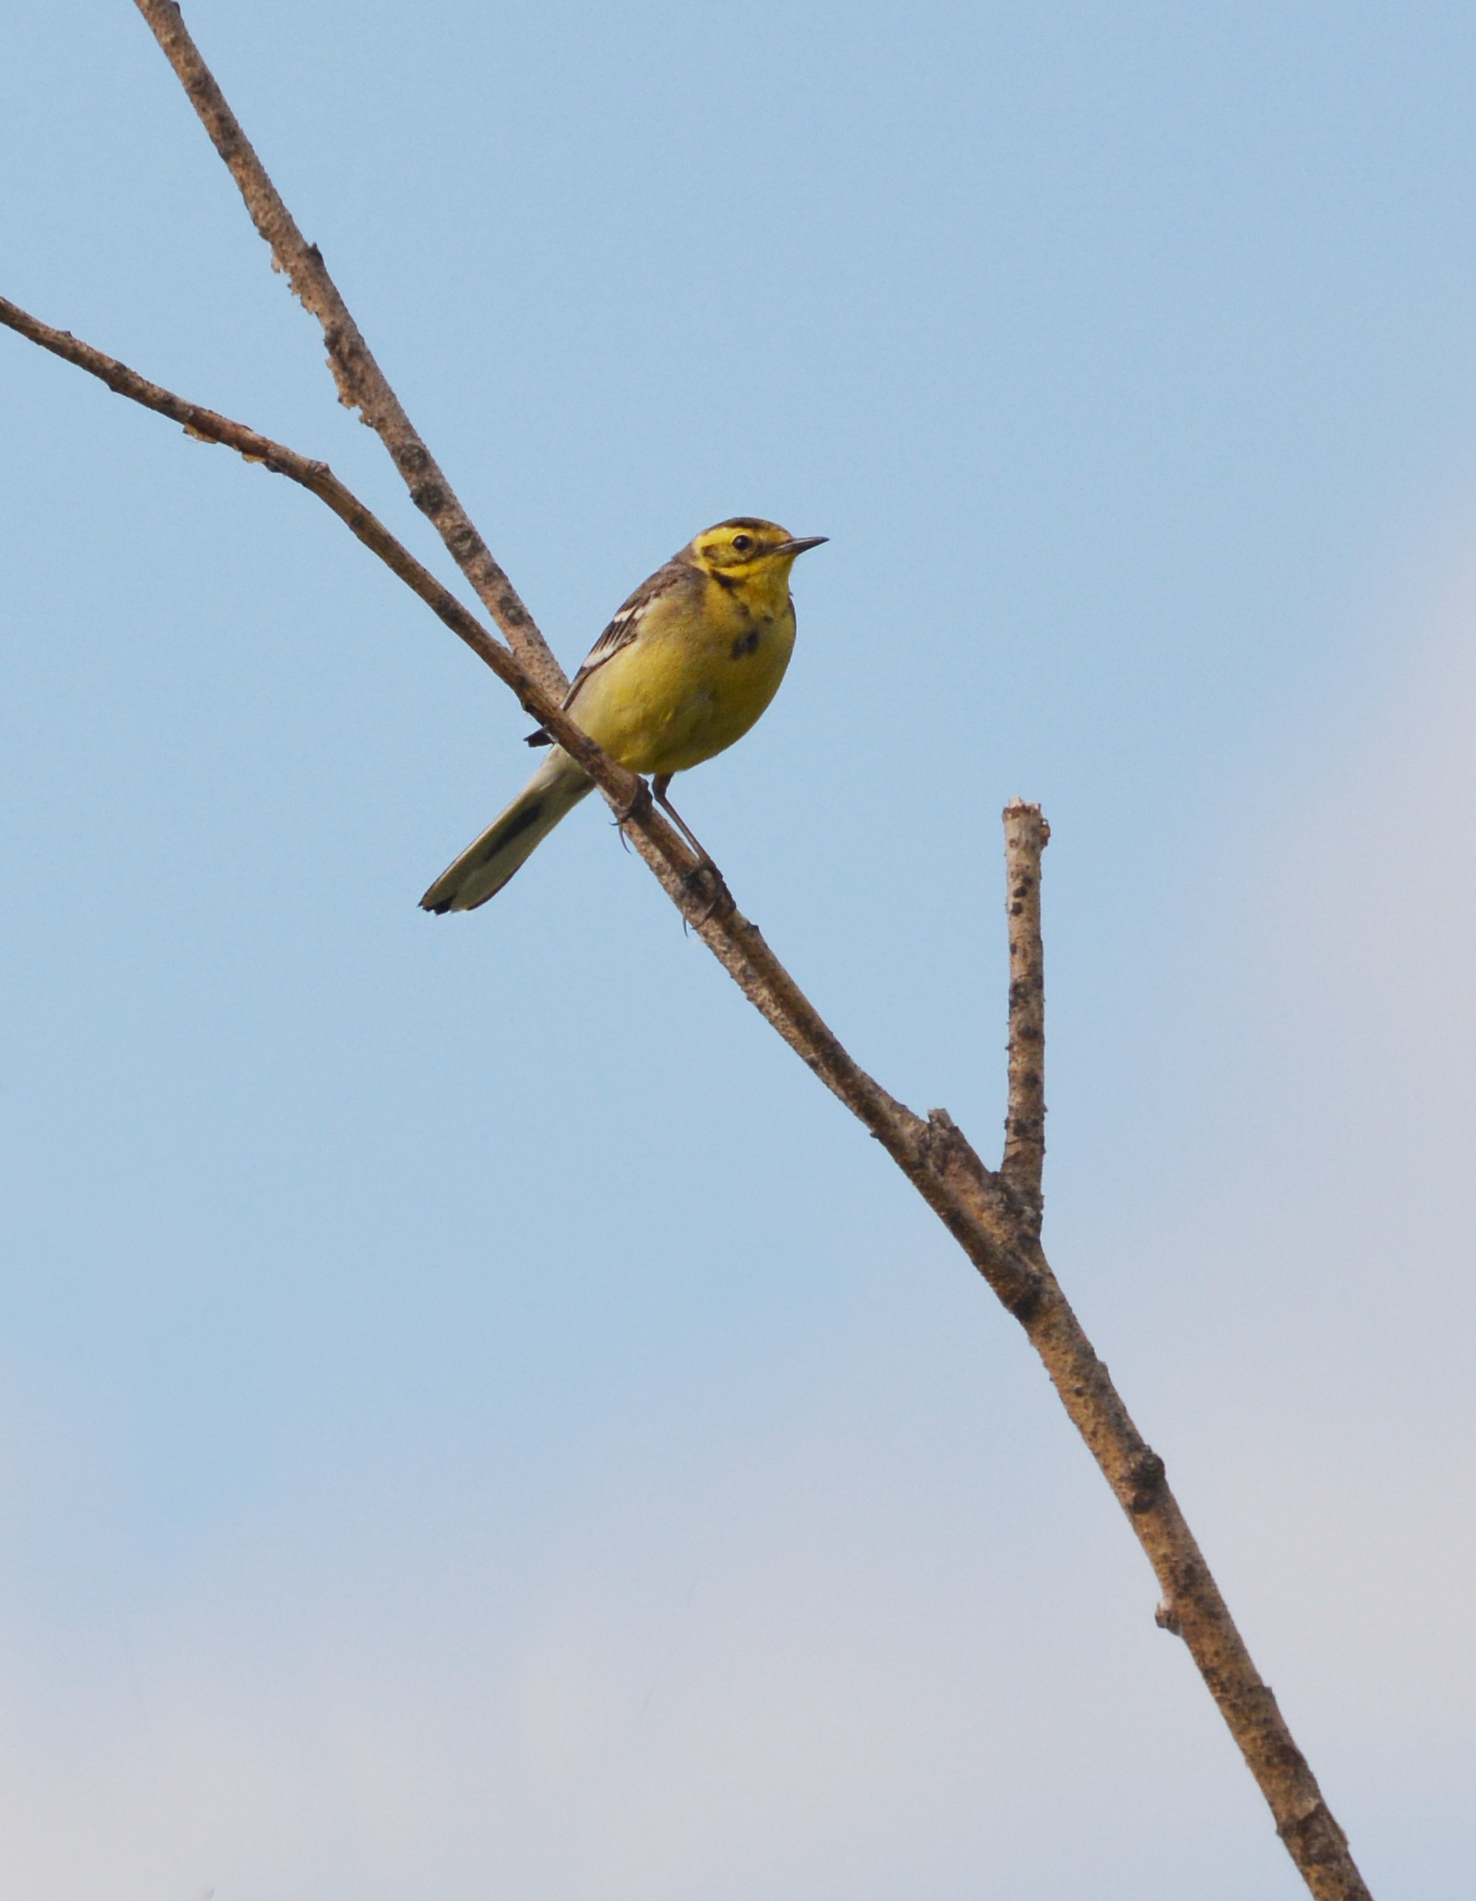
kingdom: Animalia
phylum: Chordata
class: Aves
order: Passeriformes
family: Motacillidae
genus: Motacilla
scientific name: Motacilla citreola
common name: Citrine wagtail
